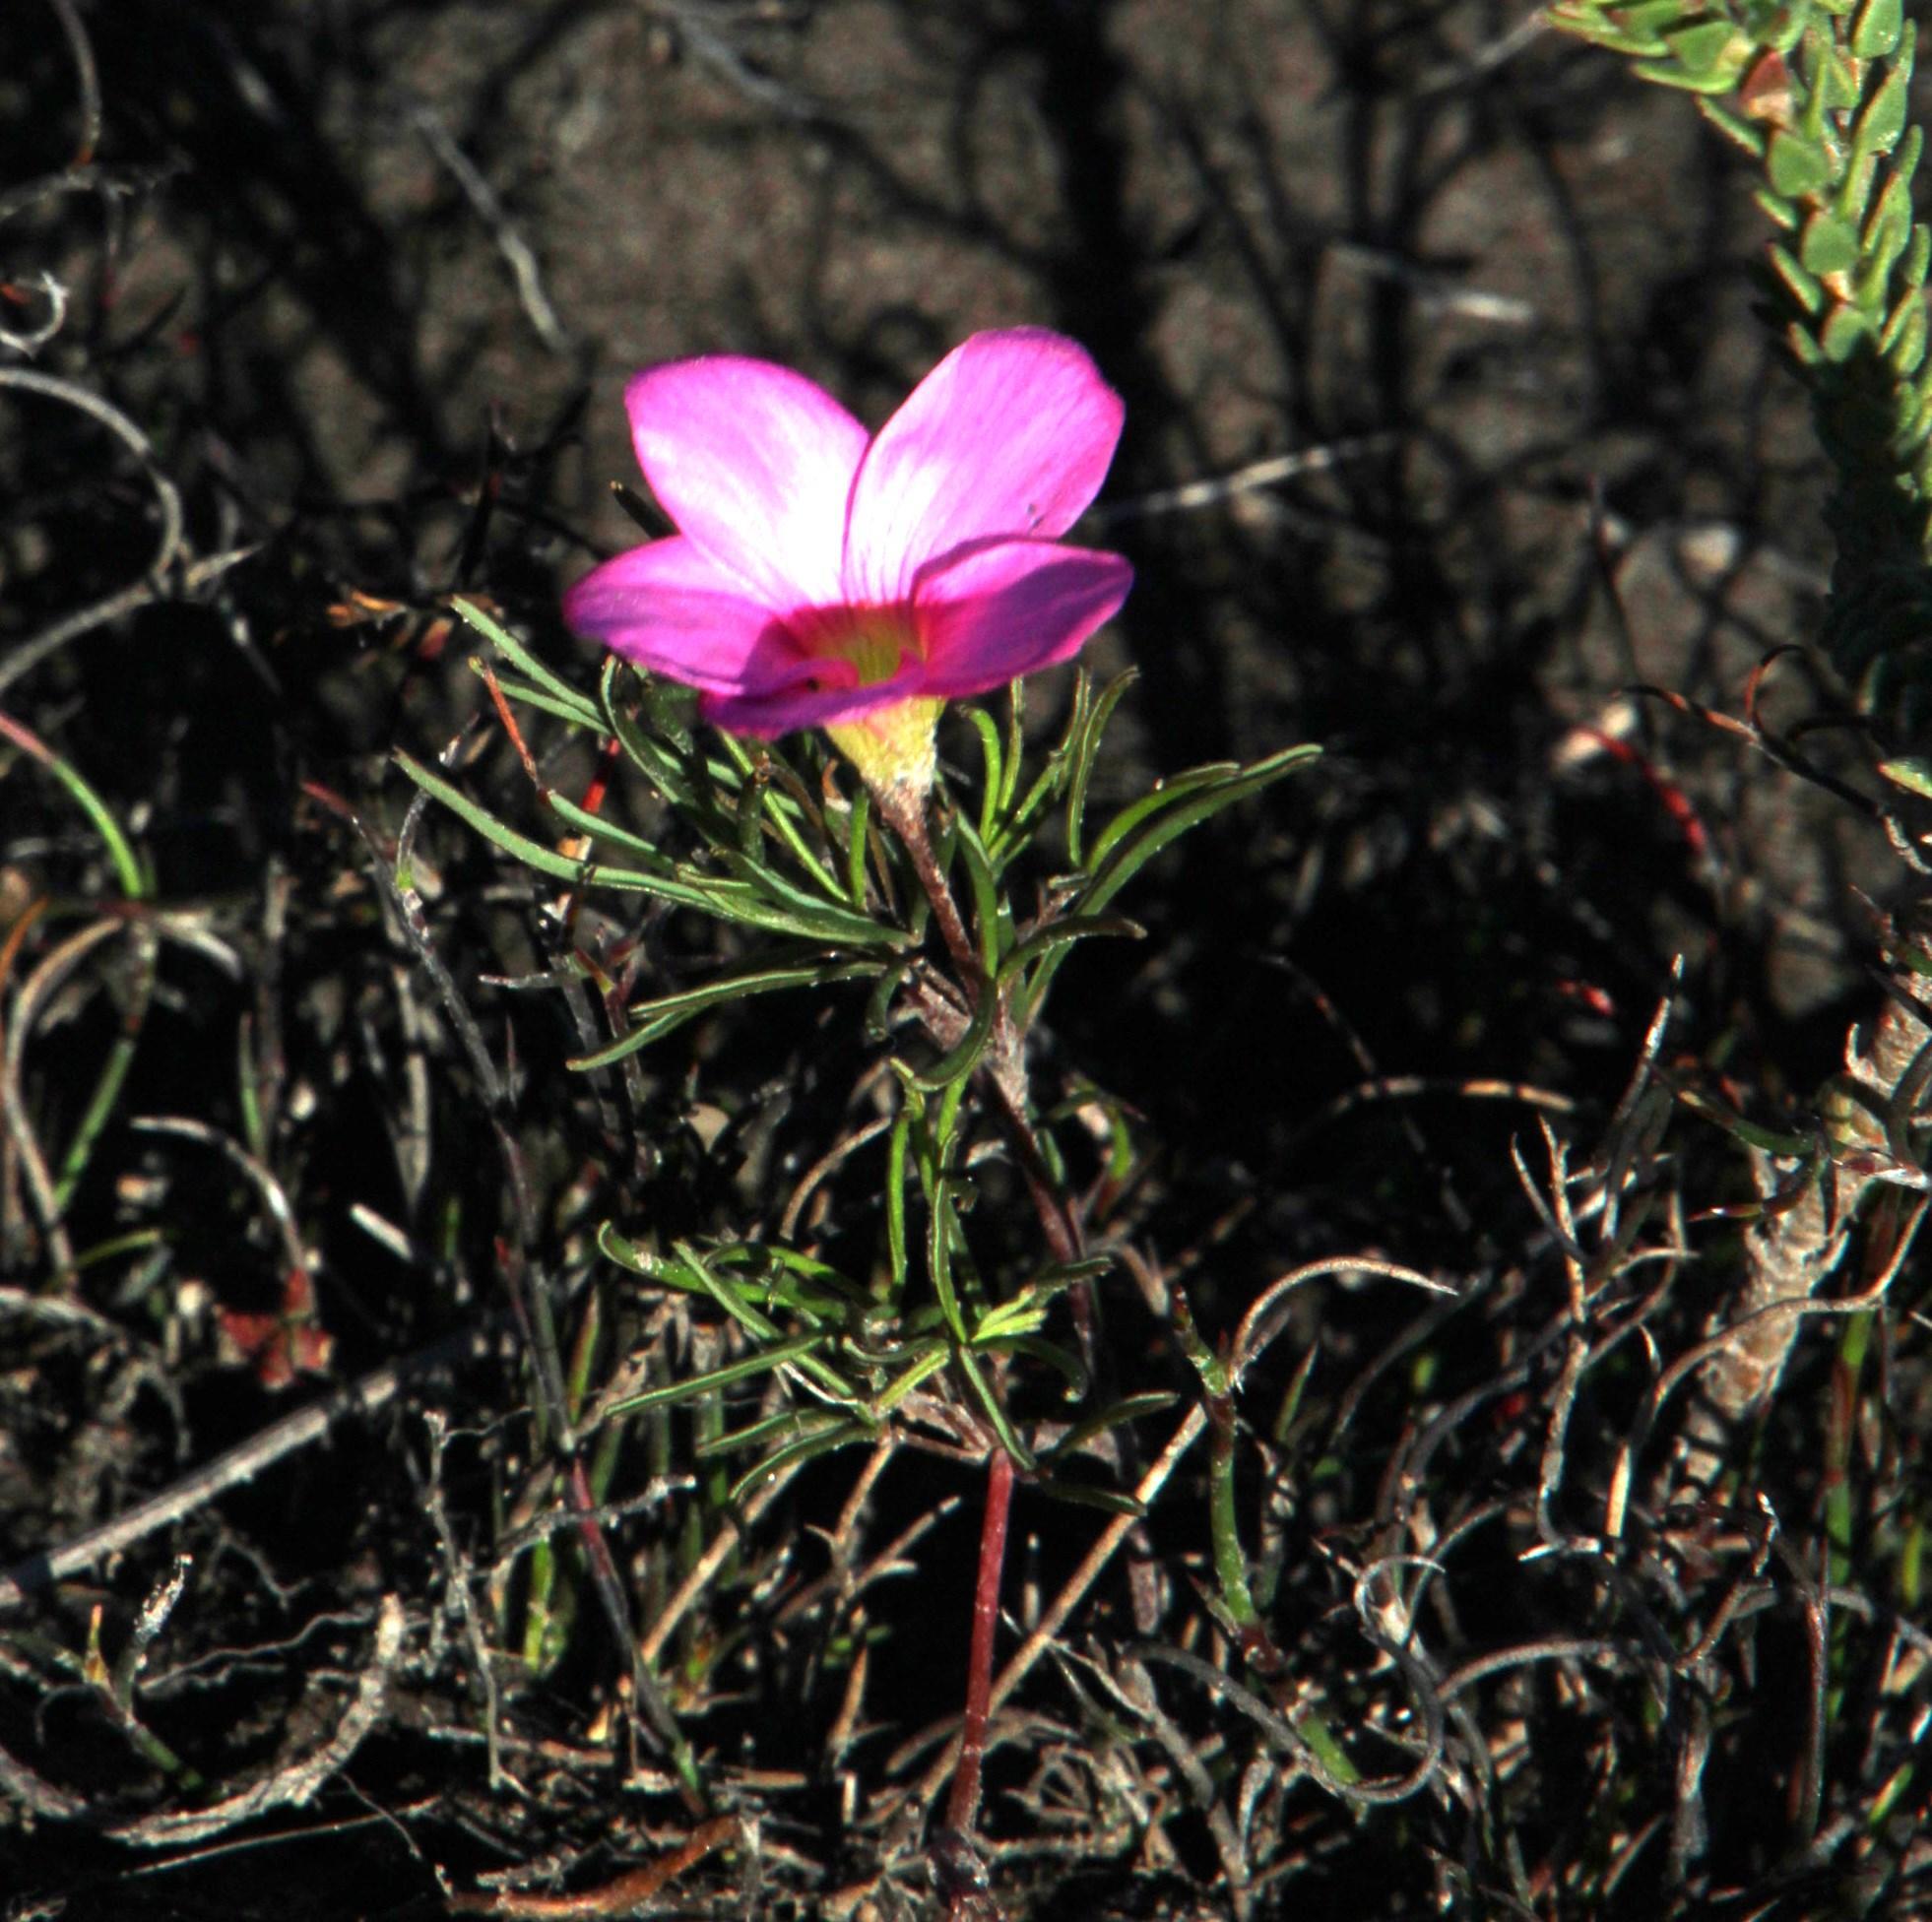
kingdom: Plantae
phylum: Tracheophyta
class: Magnoliopsida
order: Oxalidales
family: Oxalidaceae
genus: Oxalis
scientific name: Oxalis polyphylla
